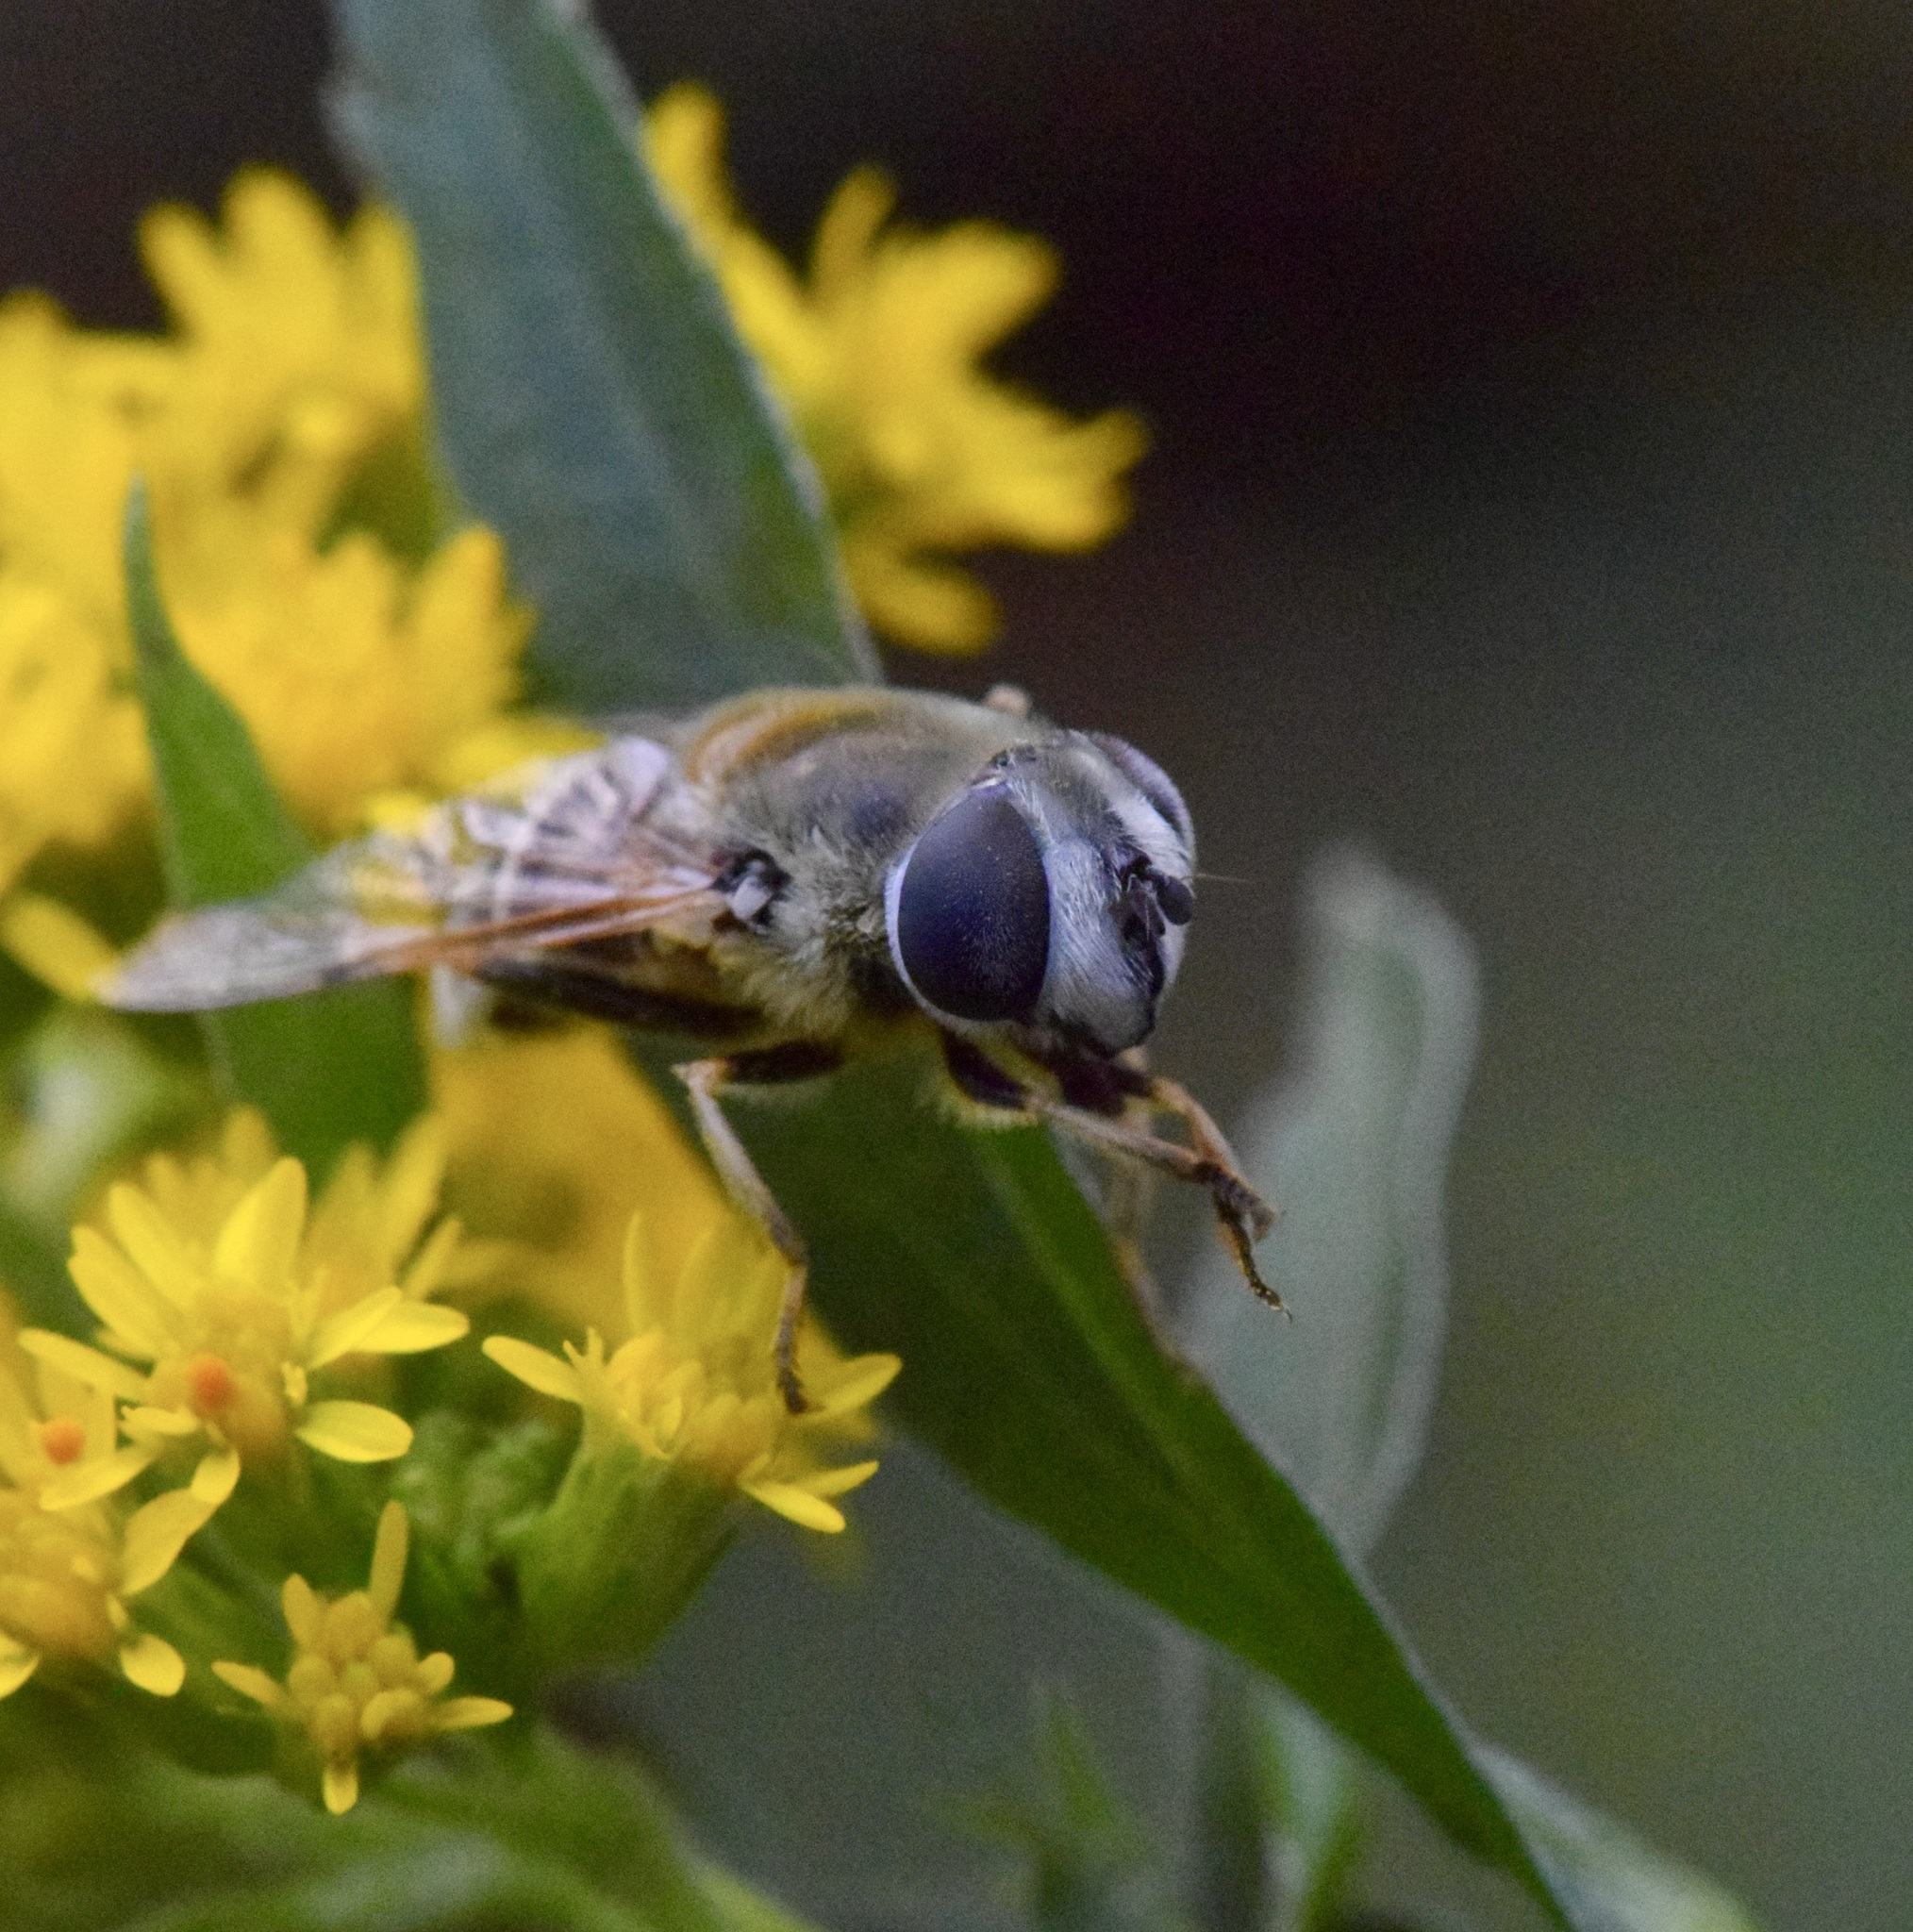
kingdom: Animalia
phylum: Arthropoda
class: Insecta
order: Diptera
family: Syrphidae
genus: Eristalis
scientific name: Eristalis stipator
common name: Yellow-shouldered drone fly
